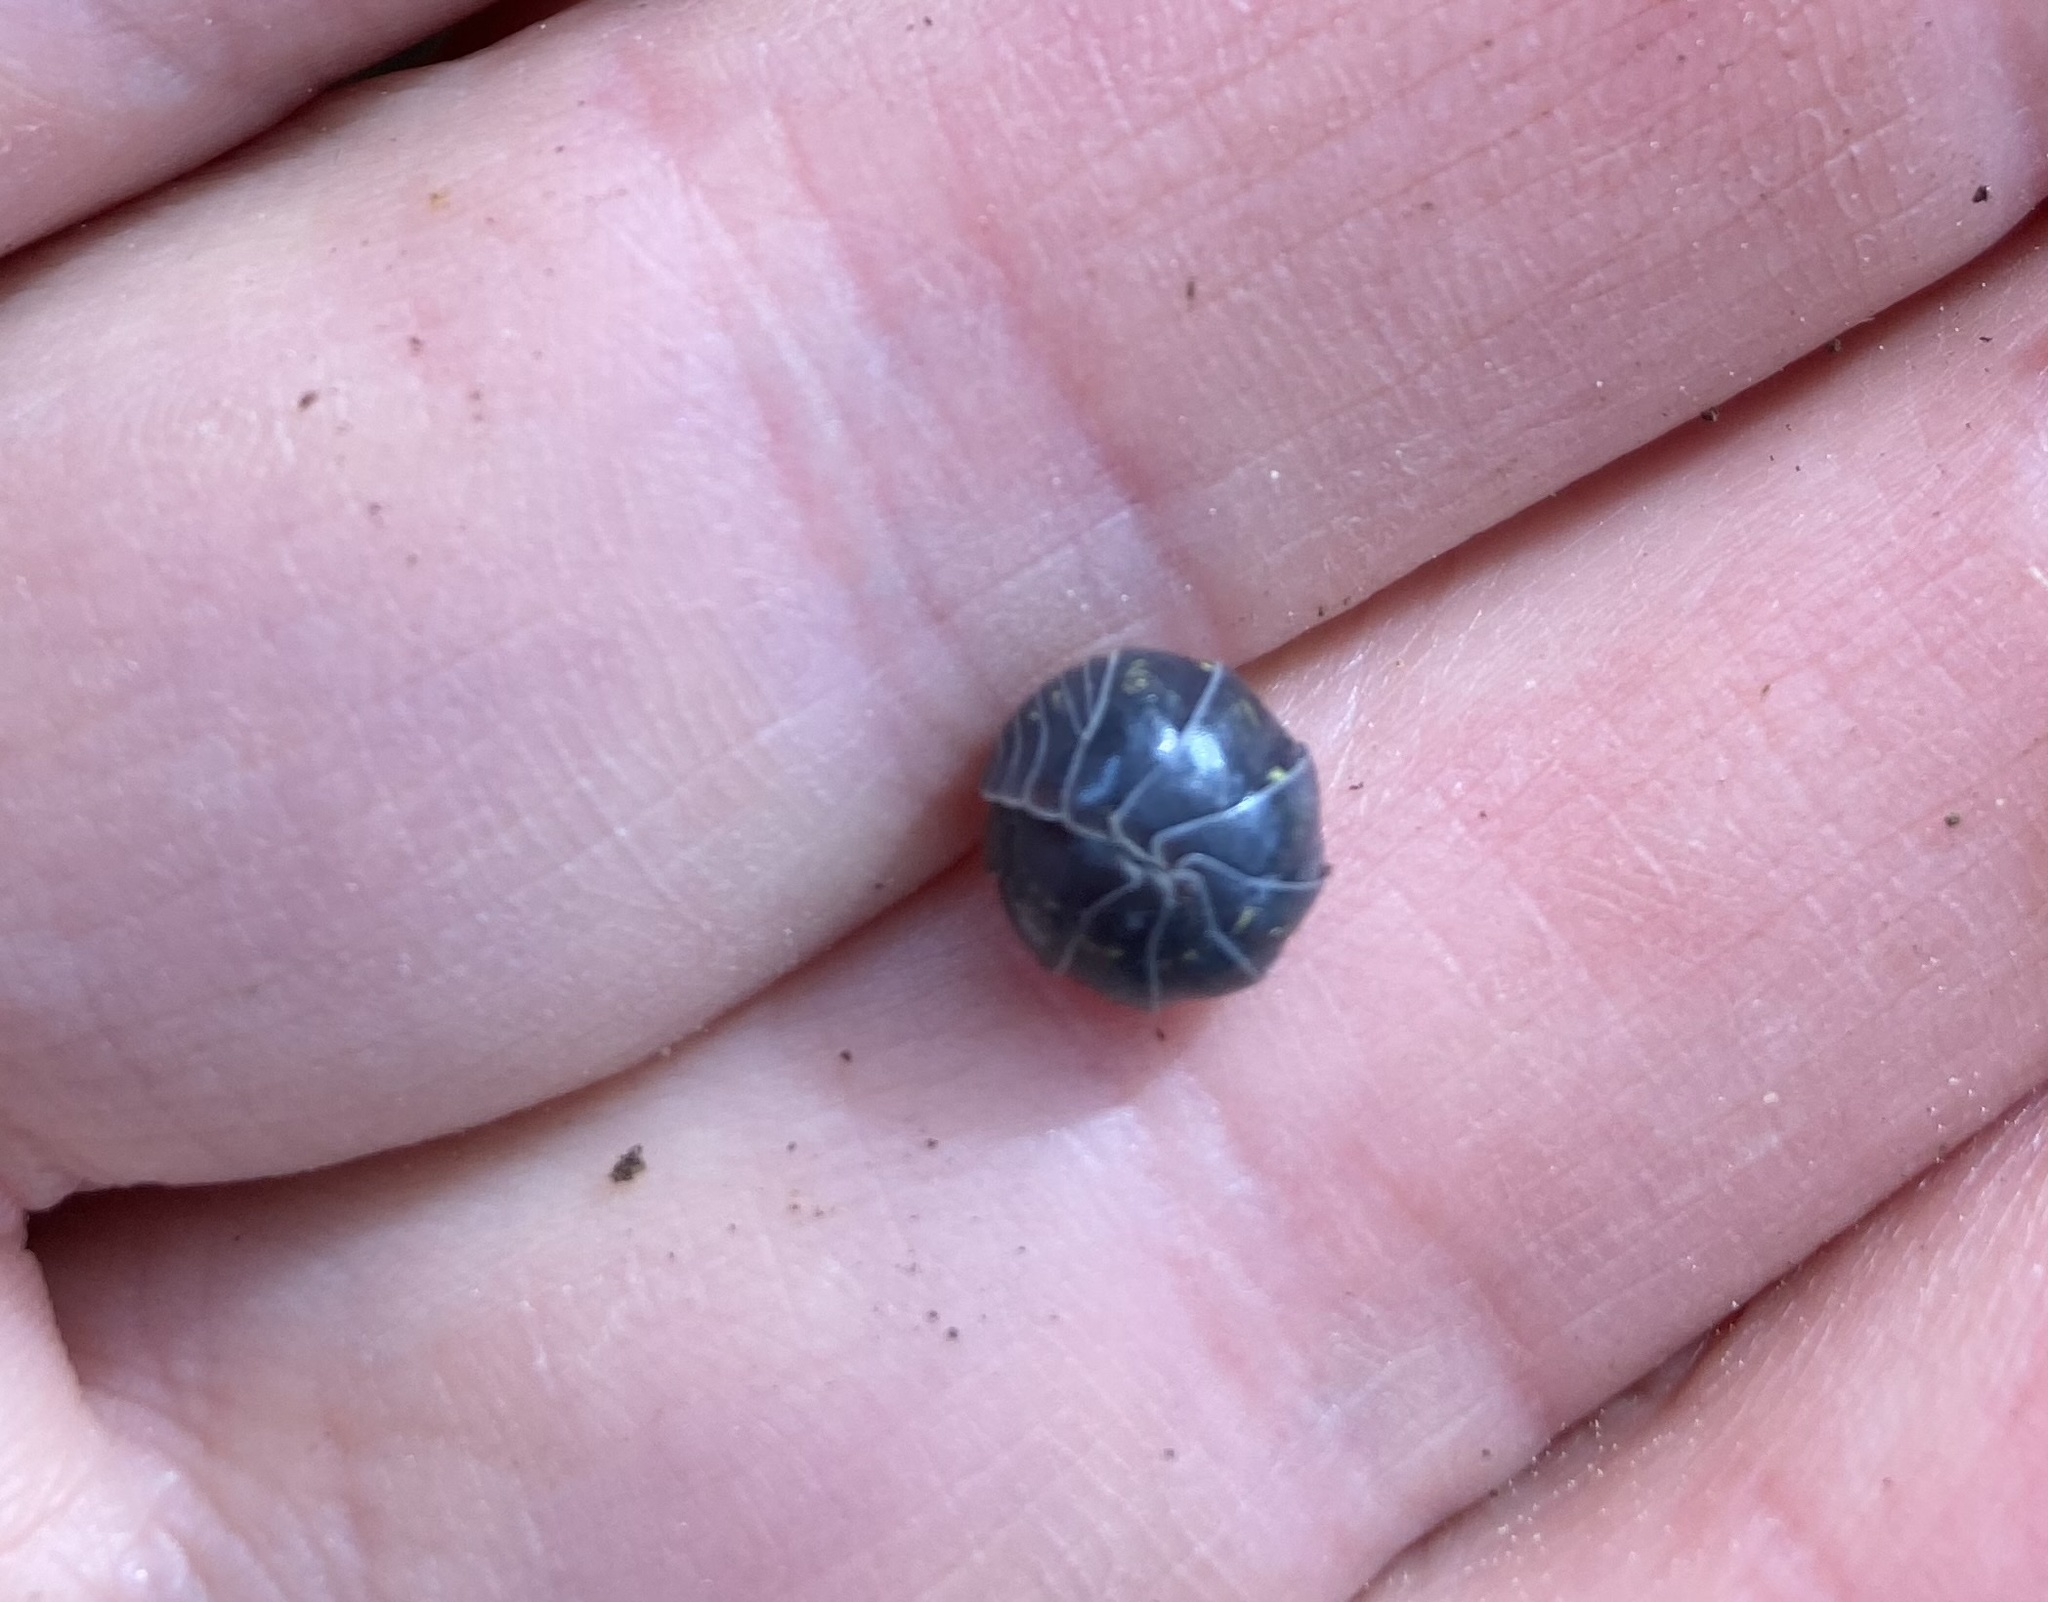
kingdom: Animalia
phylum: Arthropoda
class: Malacostraca
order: Isopoda
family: Armadillidiidae
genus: Armadillidium
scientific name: Armadillidium vulgare
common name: Common pill woodlouse
